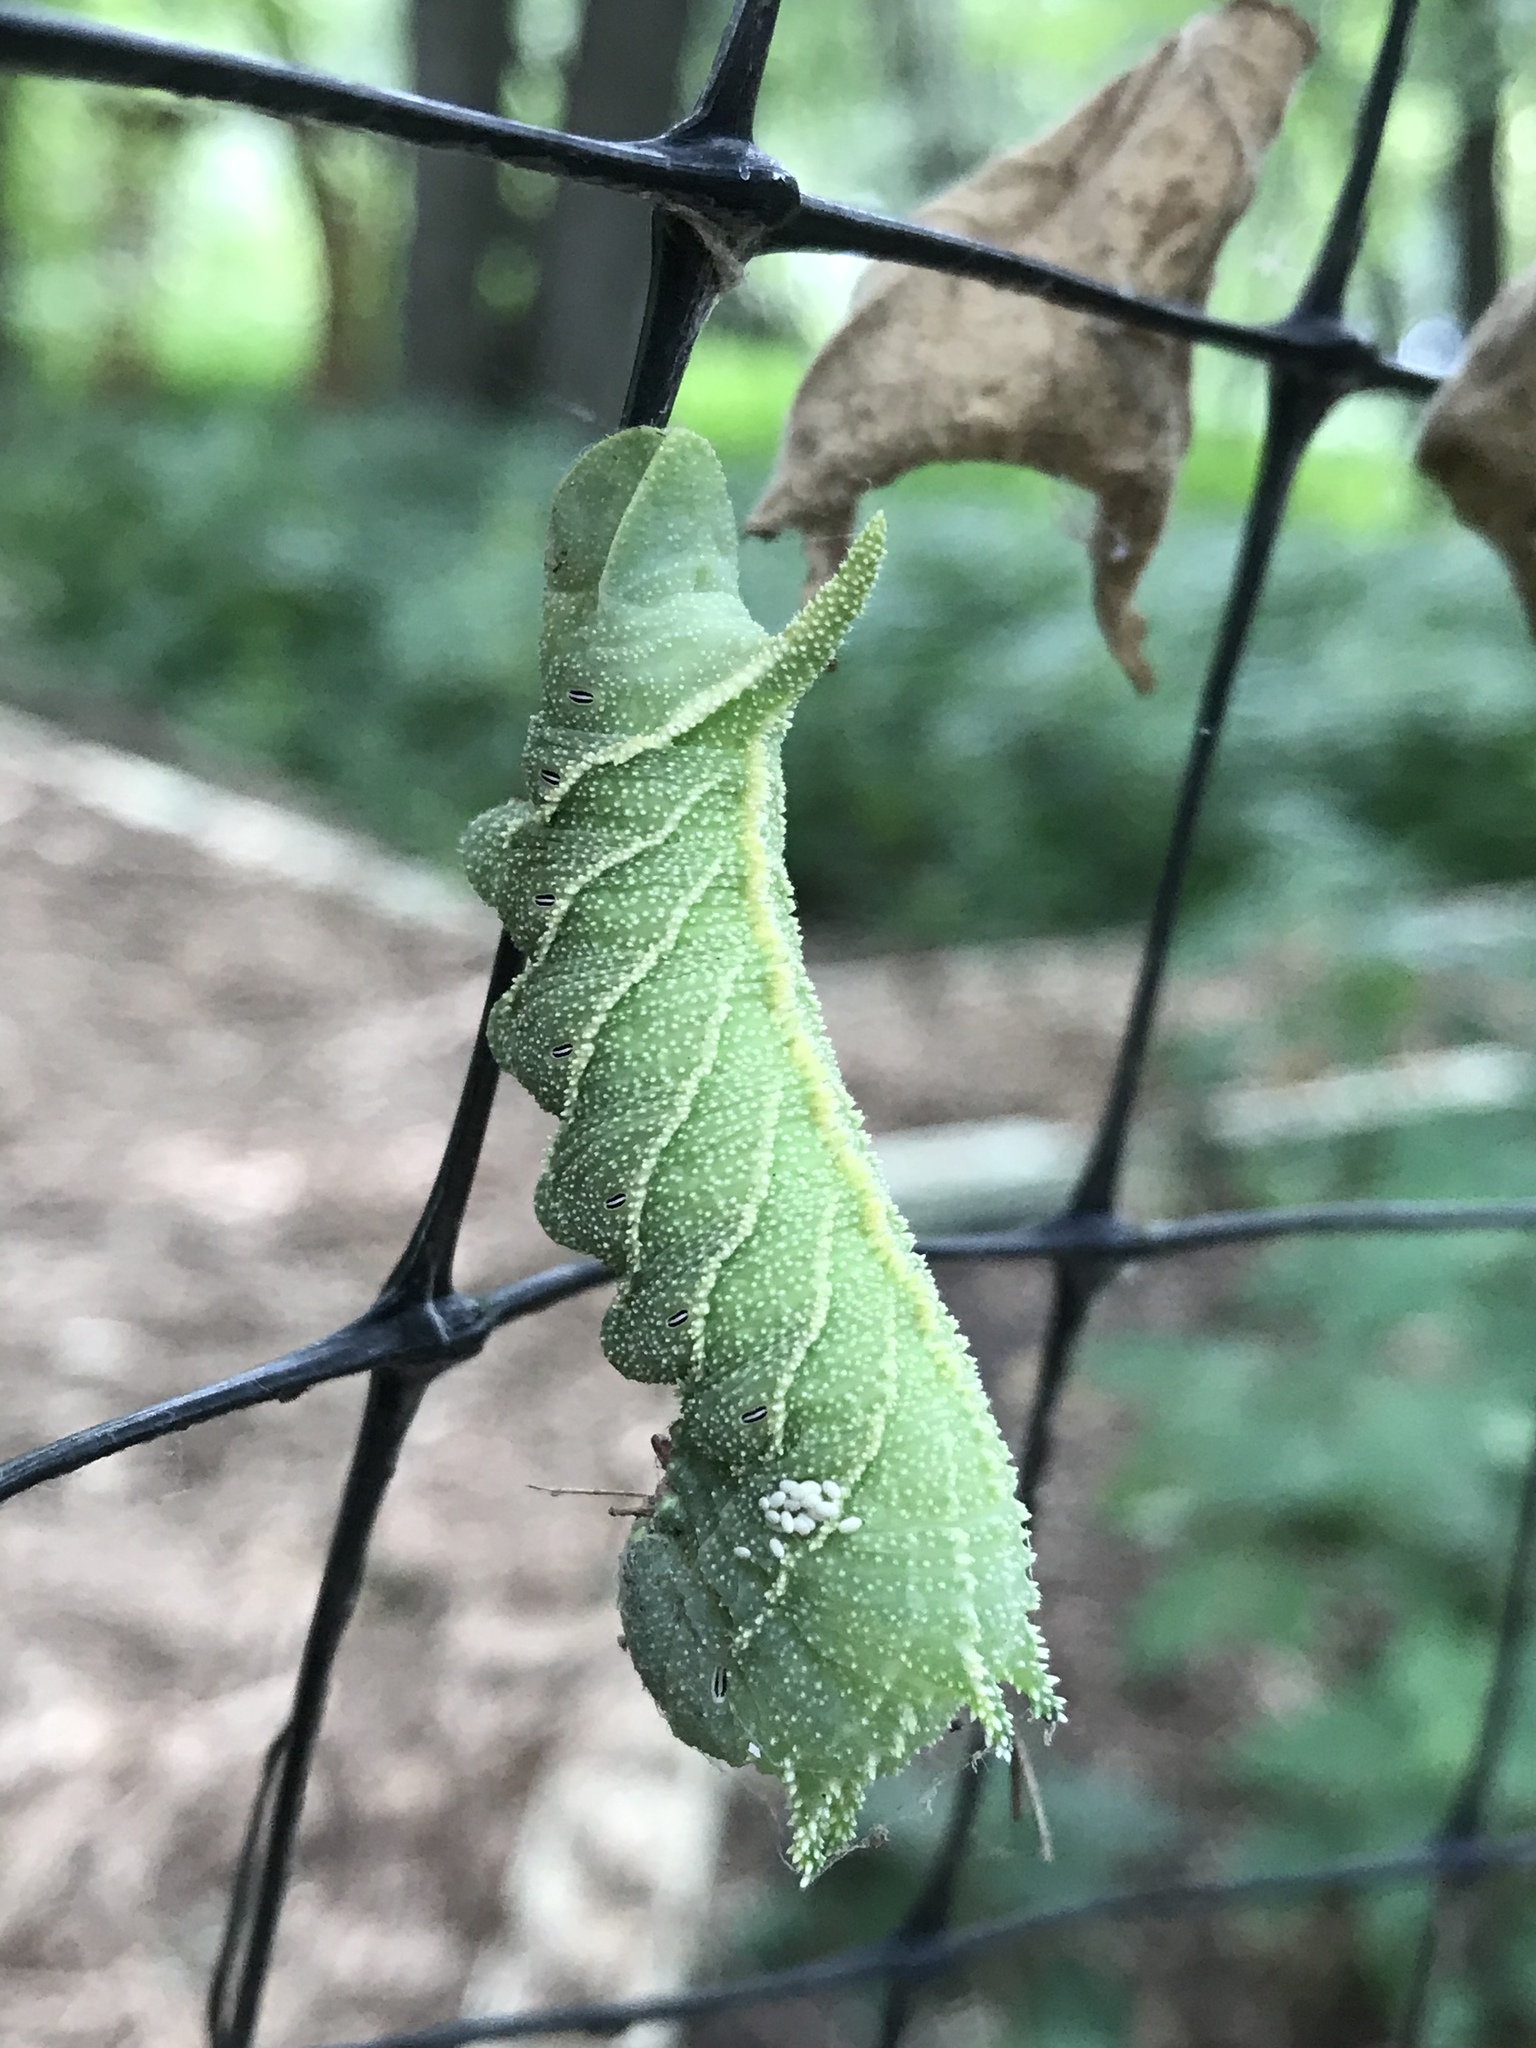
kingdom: Animalia
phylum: Arthropoda
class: Insecta
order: Lepidoptera
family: Sphingidae
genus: Ceratomia
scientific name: Ceratomia amyntor
